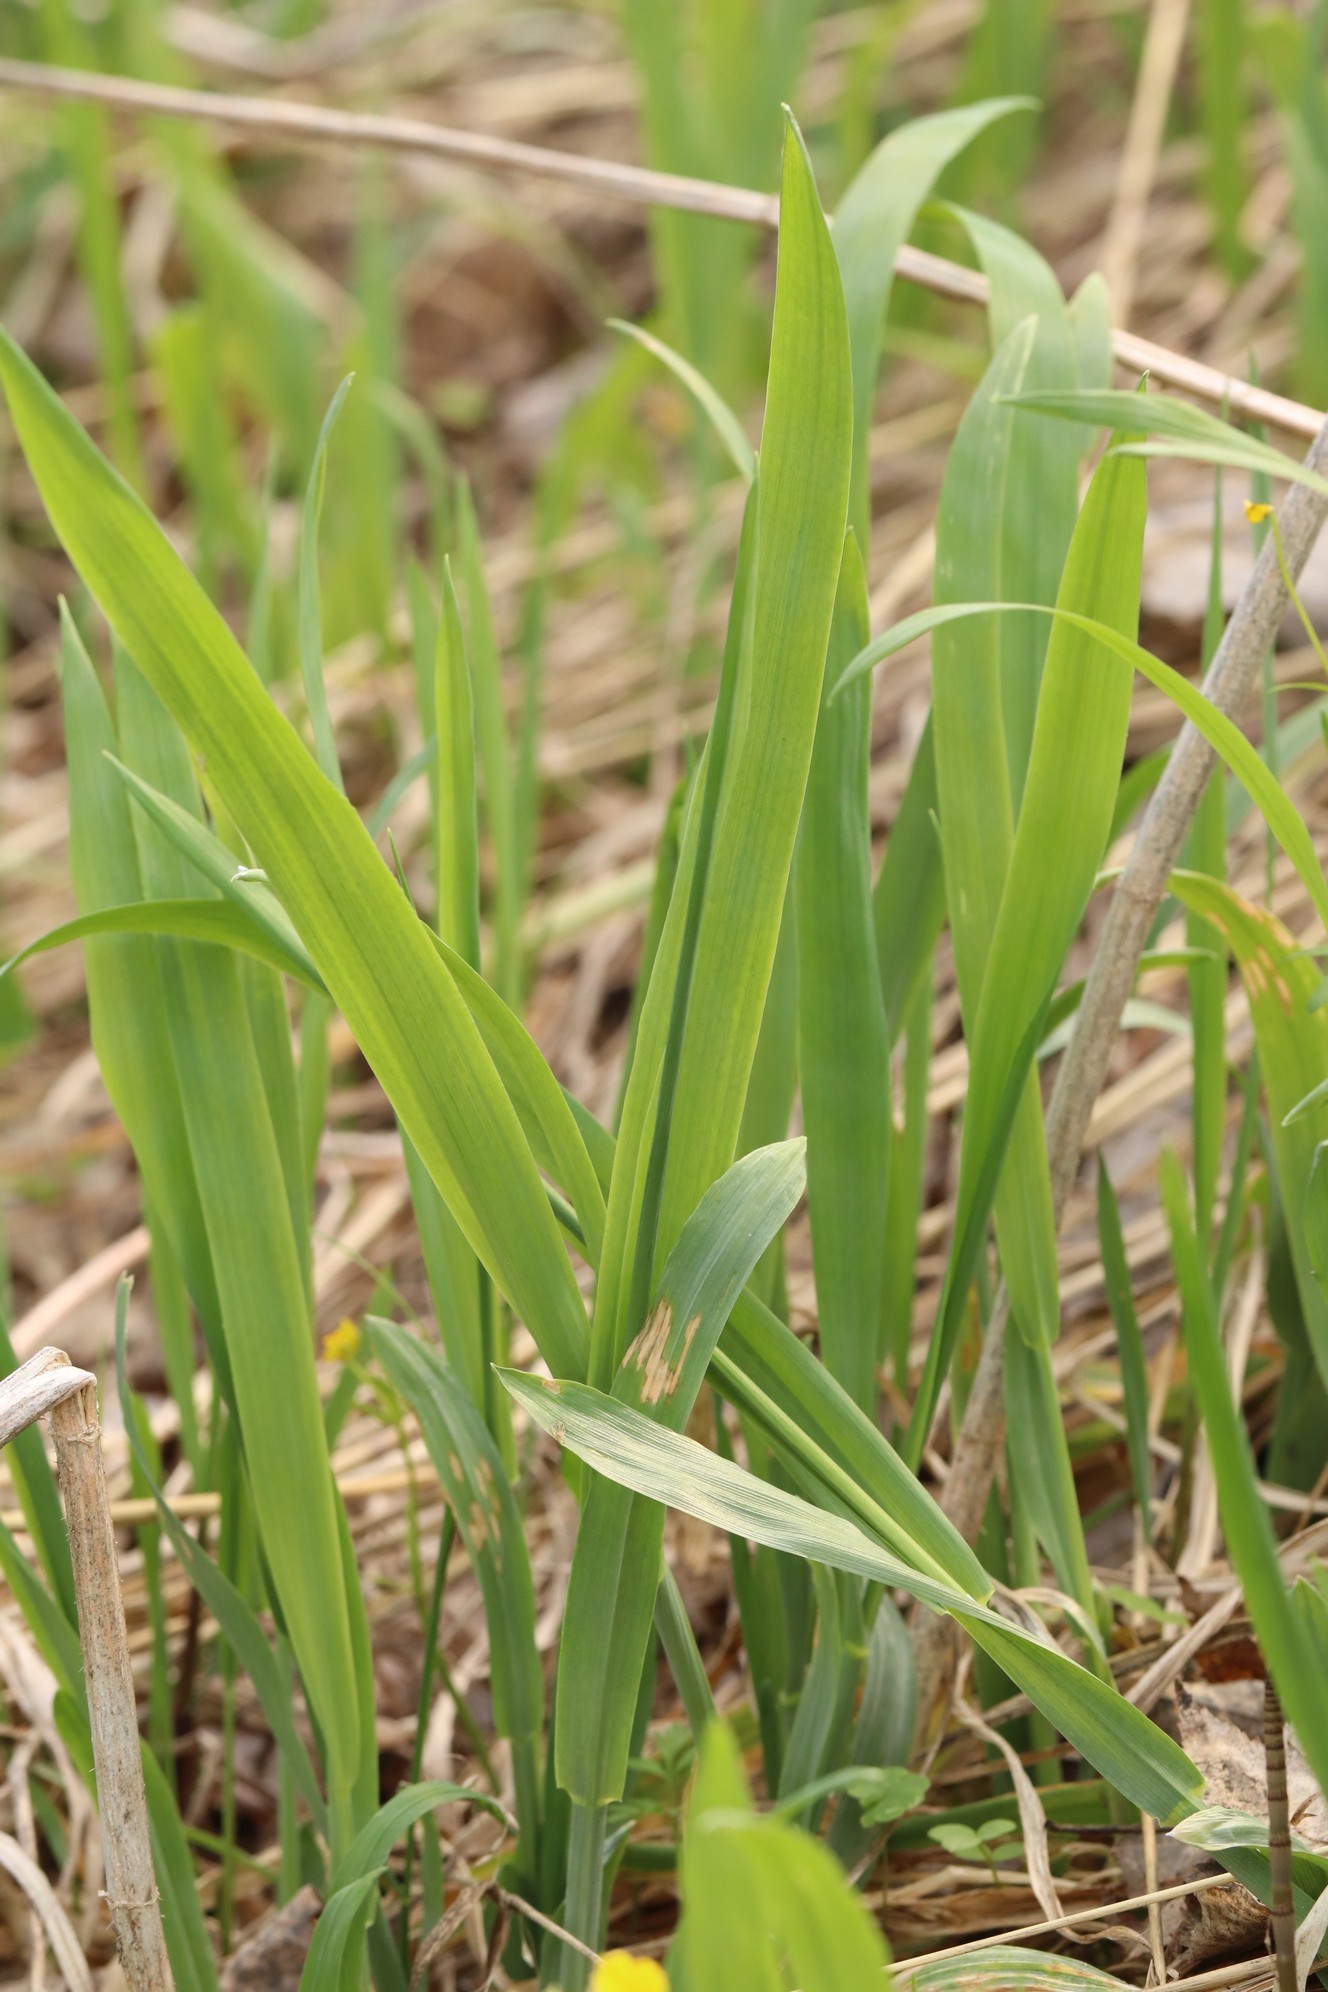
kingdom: Plantae
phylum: Tracheophyta
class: Liliopsida
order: Poales
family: Poaceae
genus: Milium
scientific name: Milium effusum
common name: Wood millet
